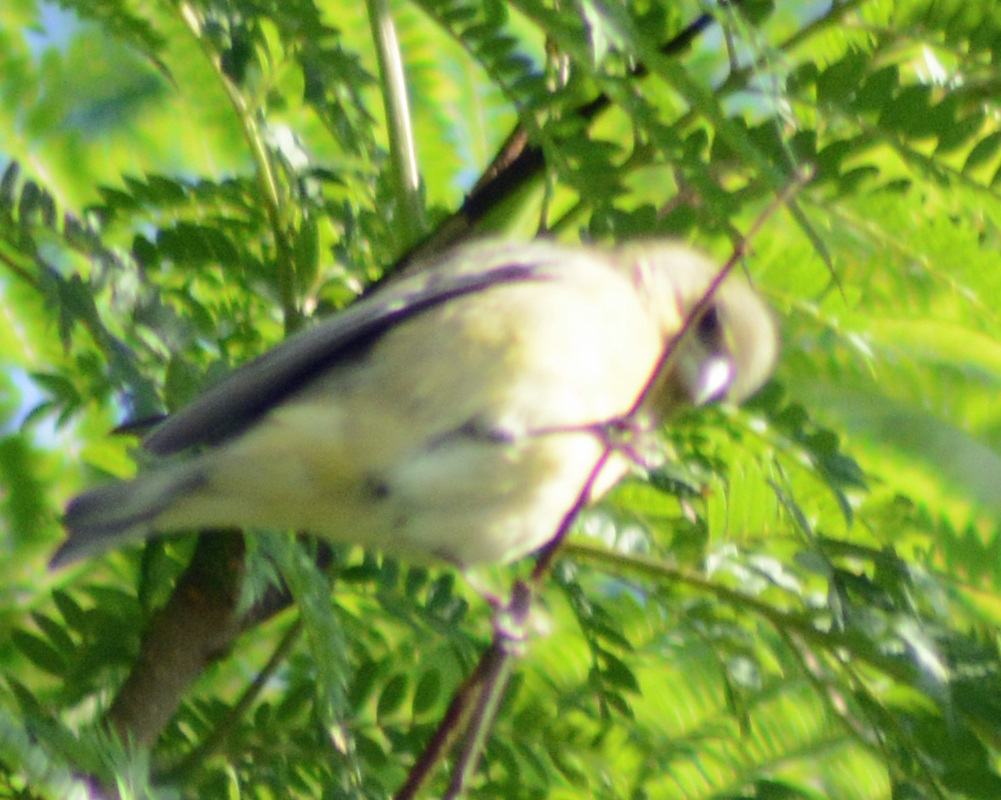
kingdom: Animalia
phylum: Chordata
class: Aves
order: Passeriformes
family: Fringillidae
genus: Spinus
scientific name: Spinus psaltria
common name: Lesser goldfinch
